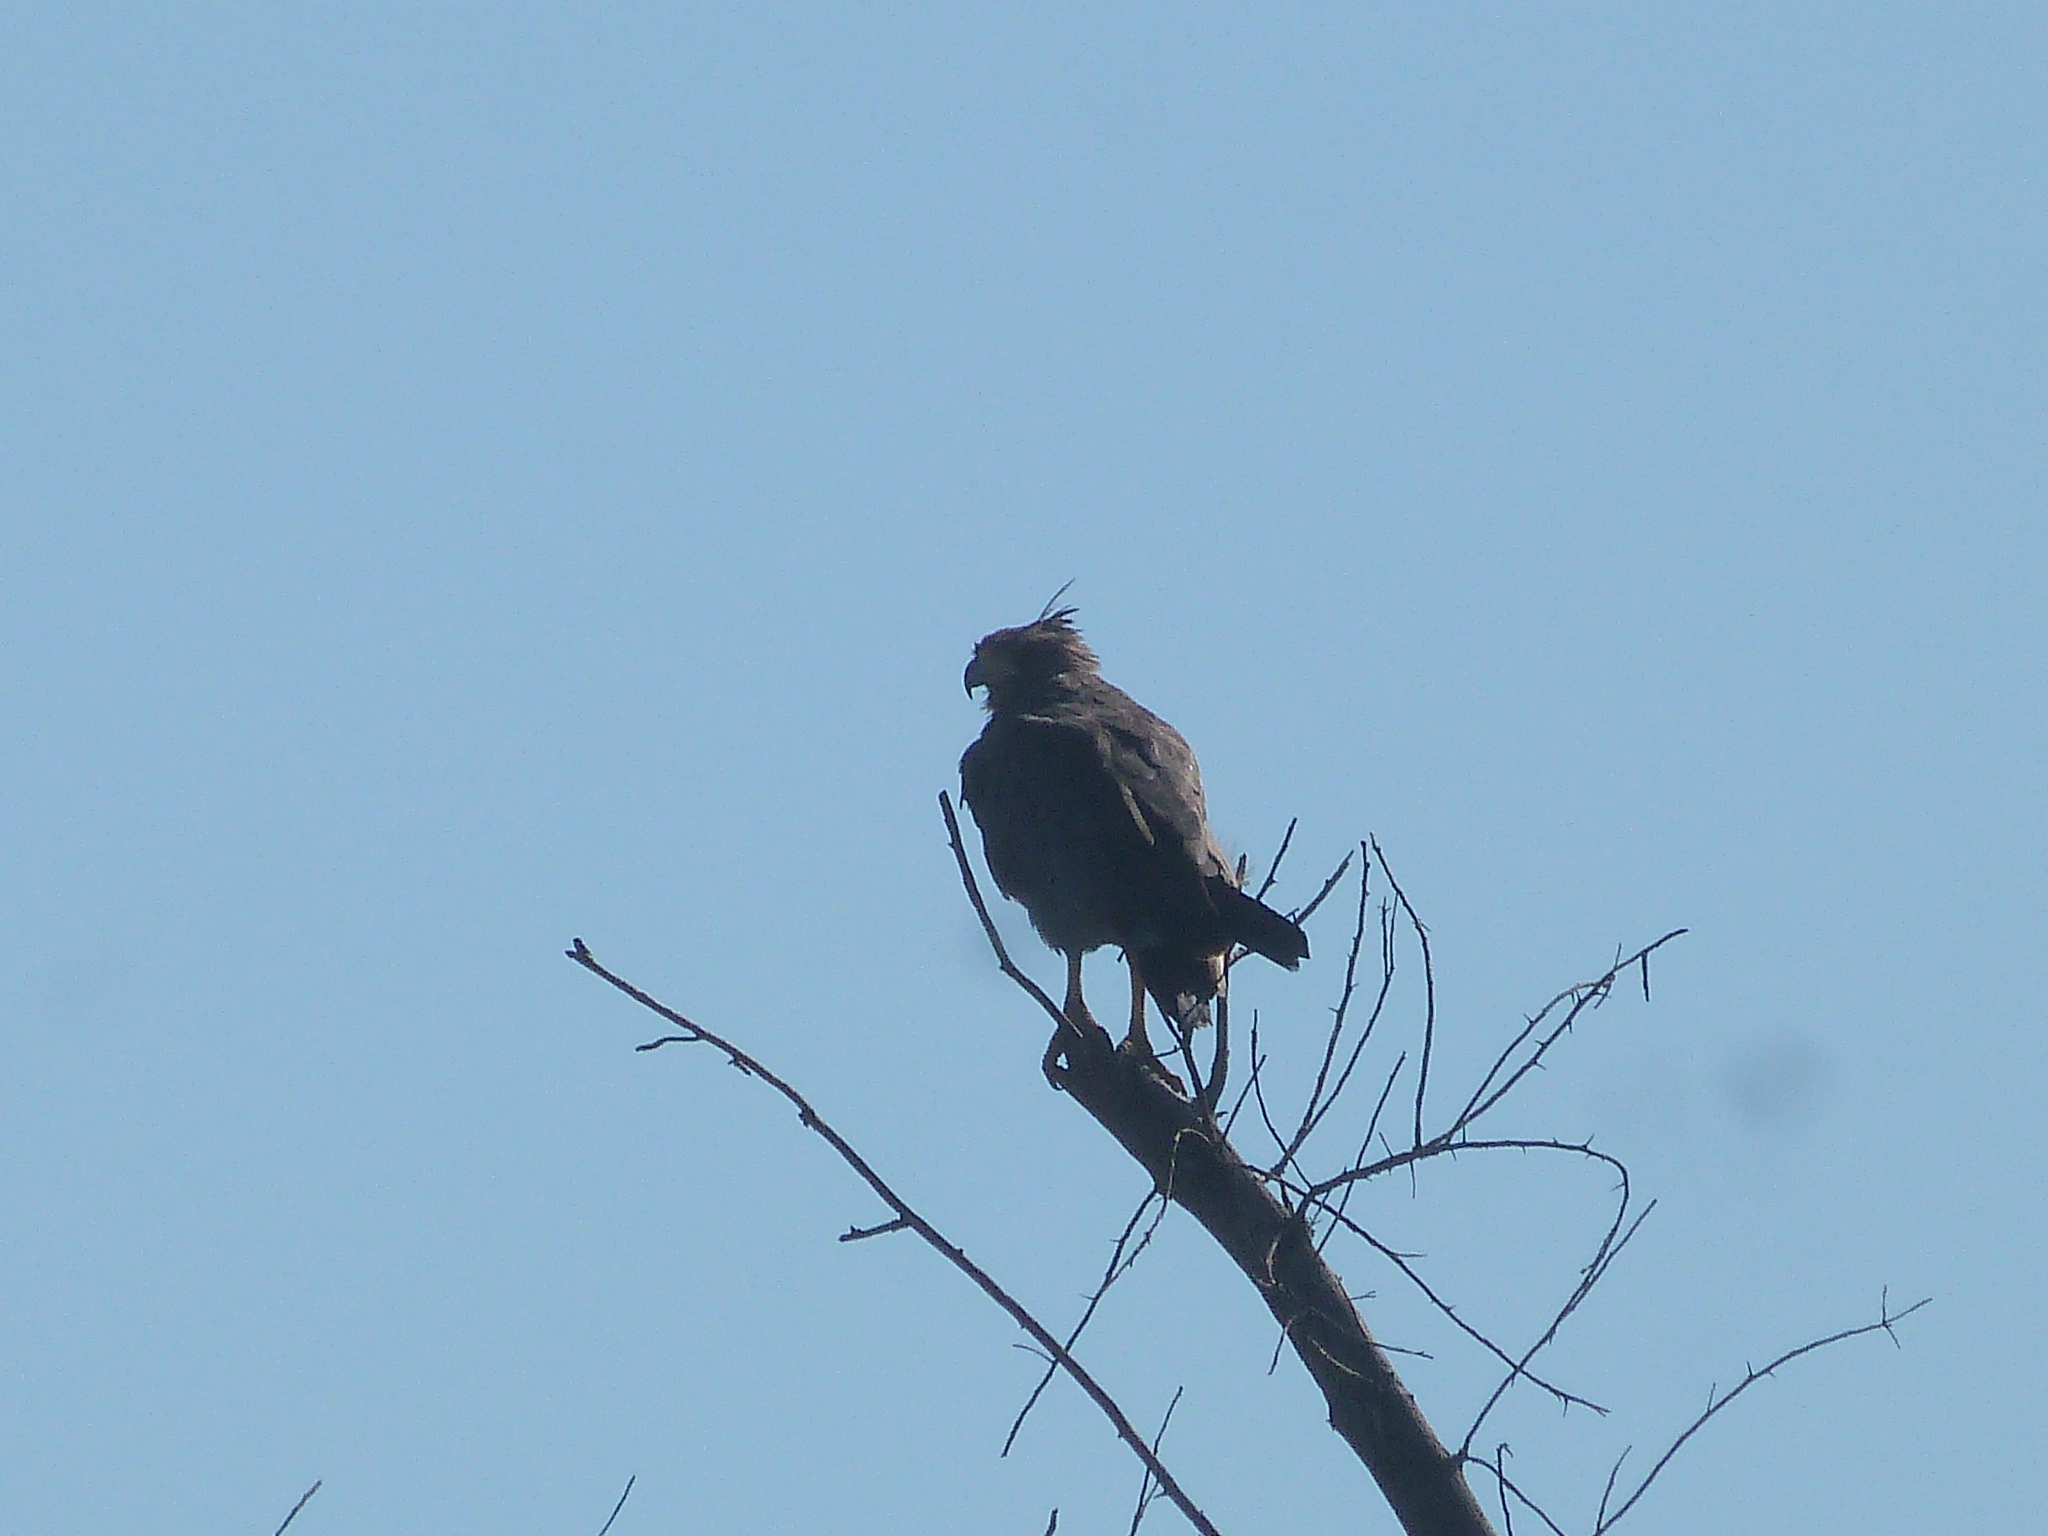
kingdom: Animalia
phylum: Chordata
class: Aves
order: Accipitriformes
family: Accipitridae
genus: Harpyhaliaetus
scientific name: Harpyhaliaetus coronatus
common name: Crowned solitary eagle
